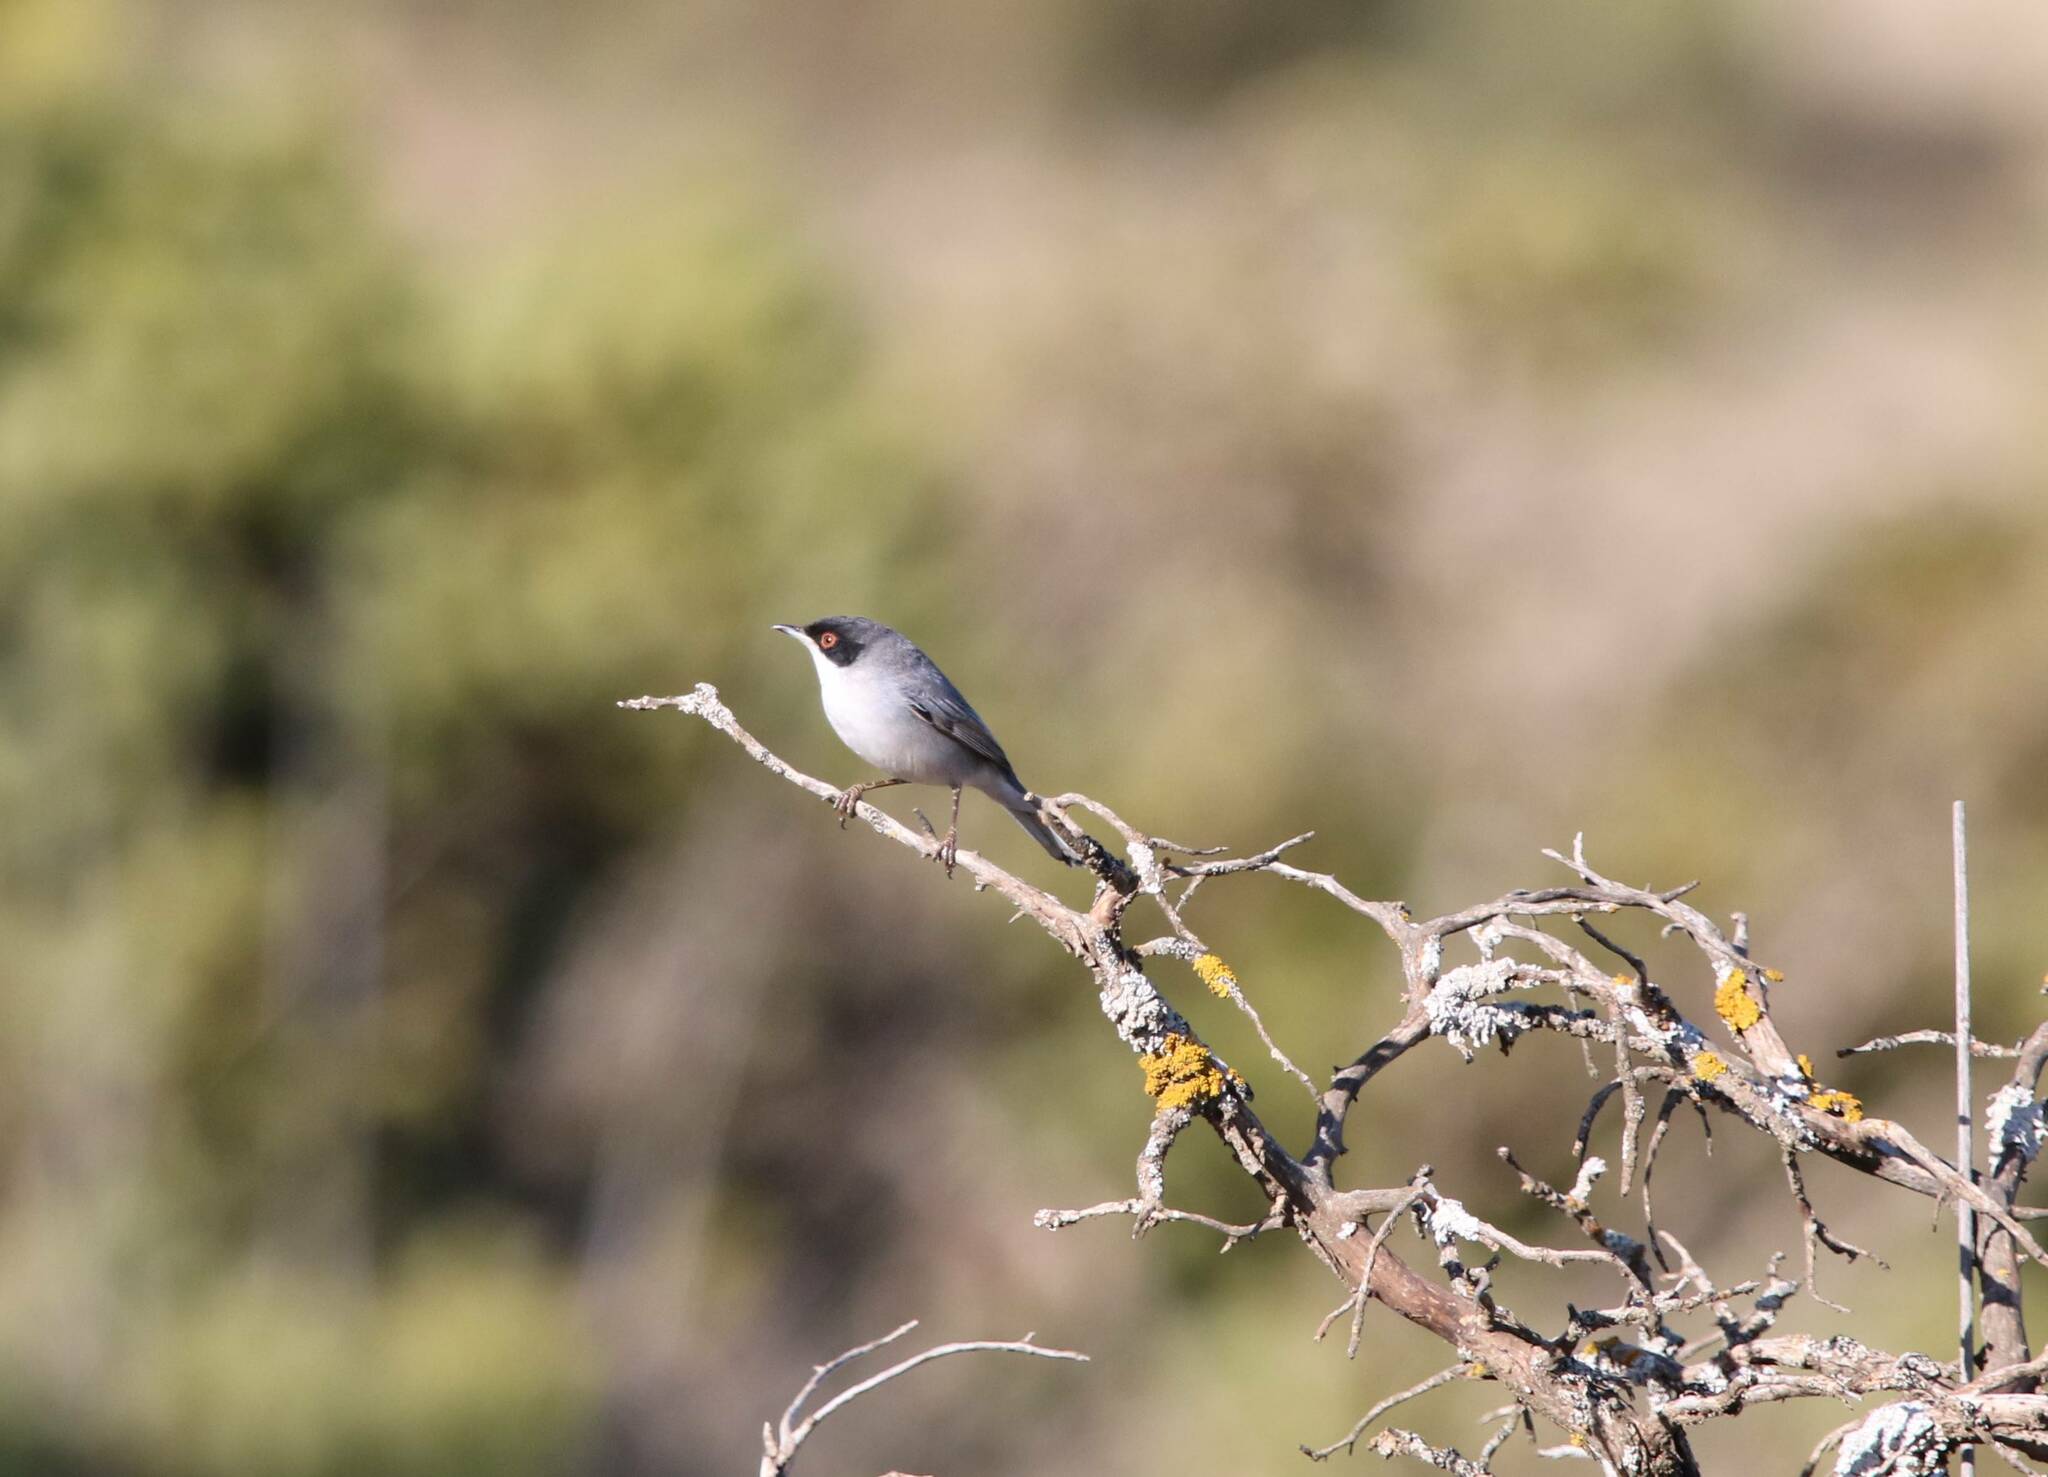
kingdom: Animalia
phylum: Chordata
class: Aves
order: Passeriformes
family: Sylviidae
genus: Curruca
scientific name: Curruca melanocephala
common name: Sardinian warbler
